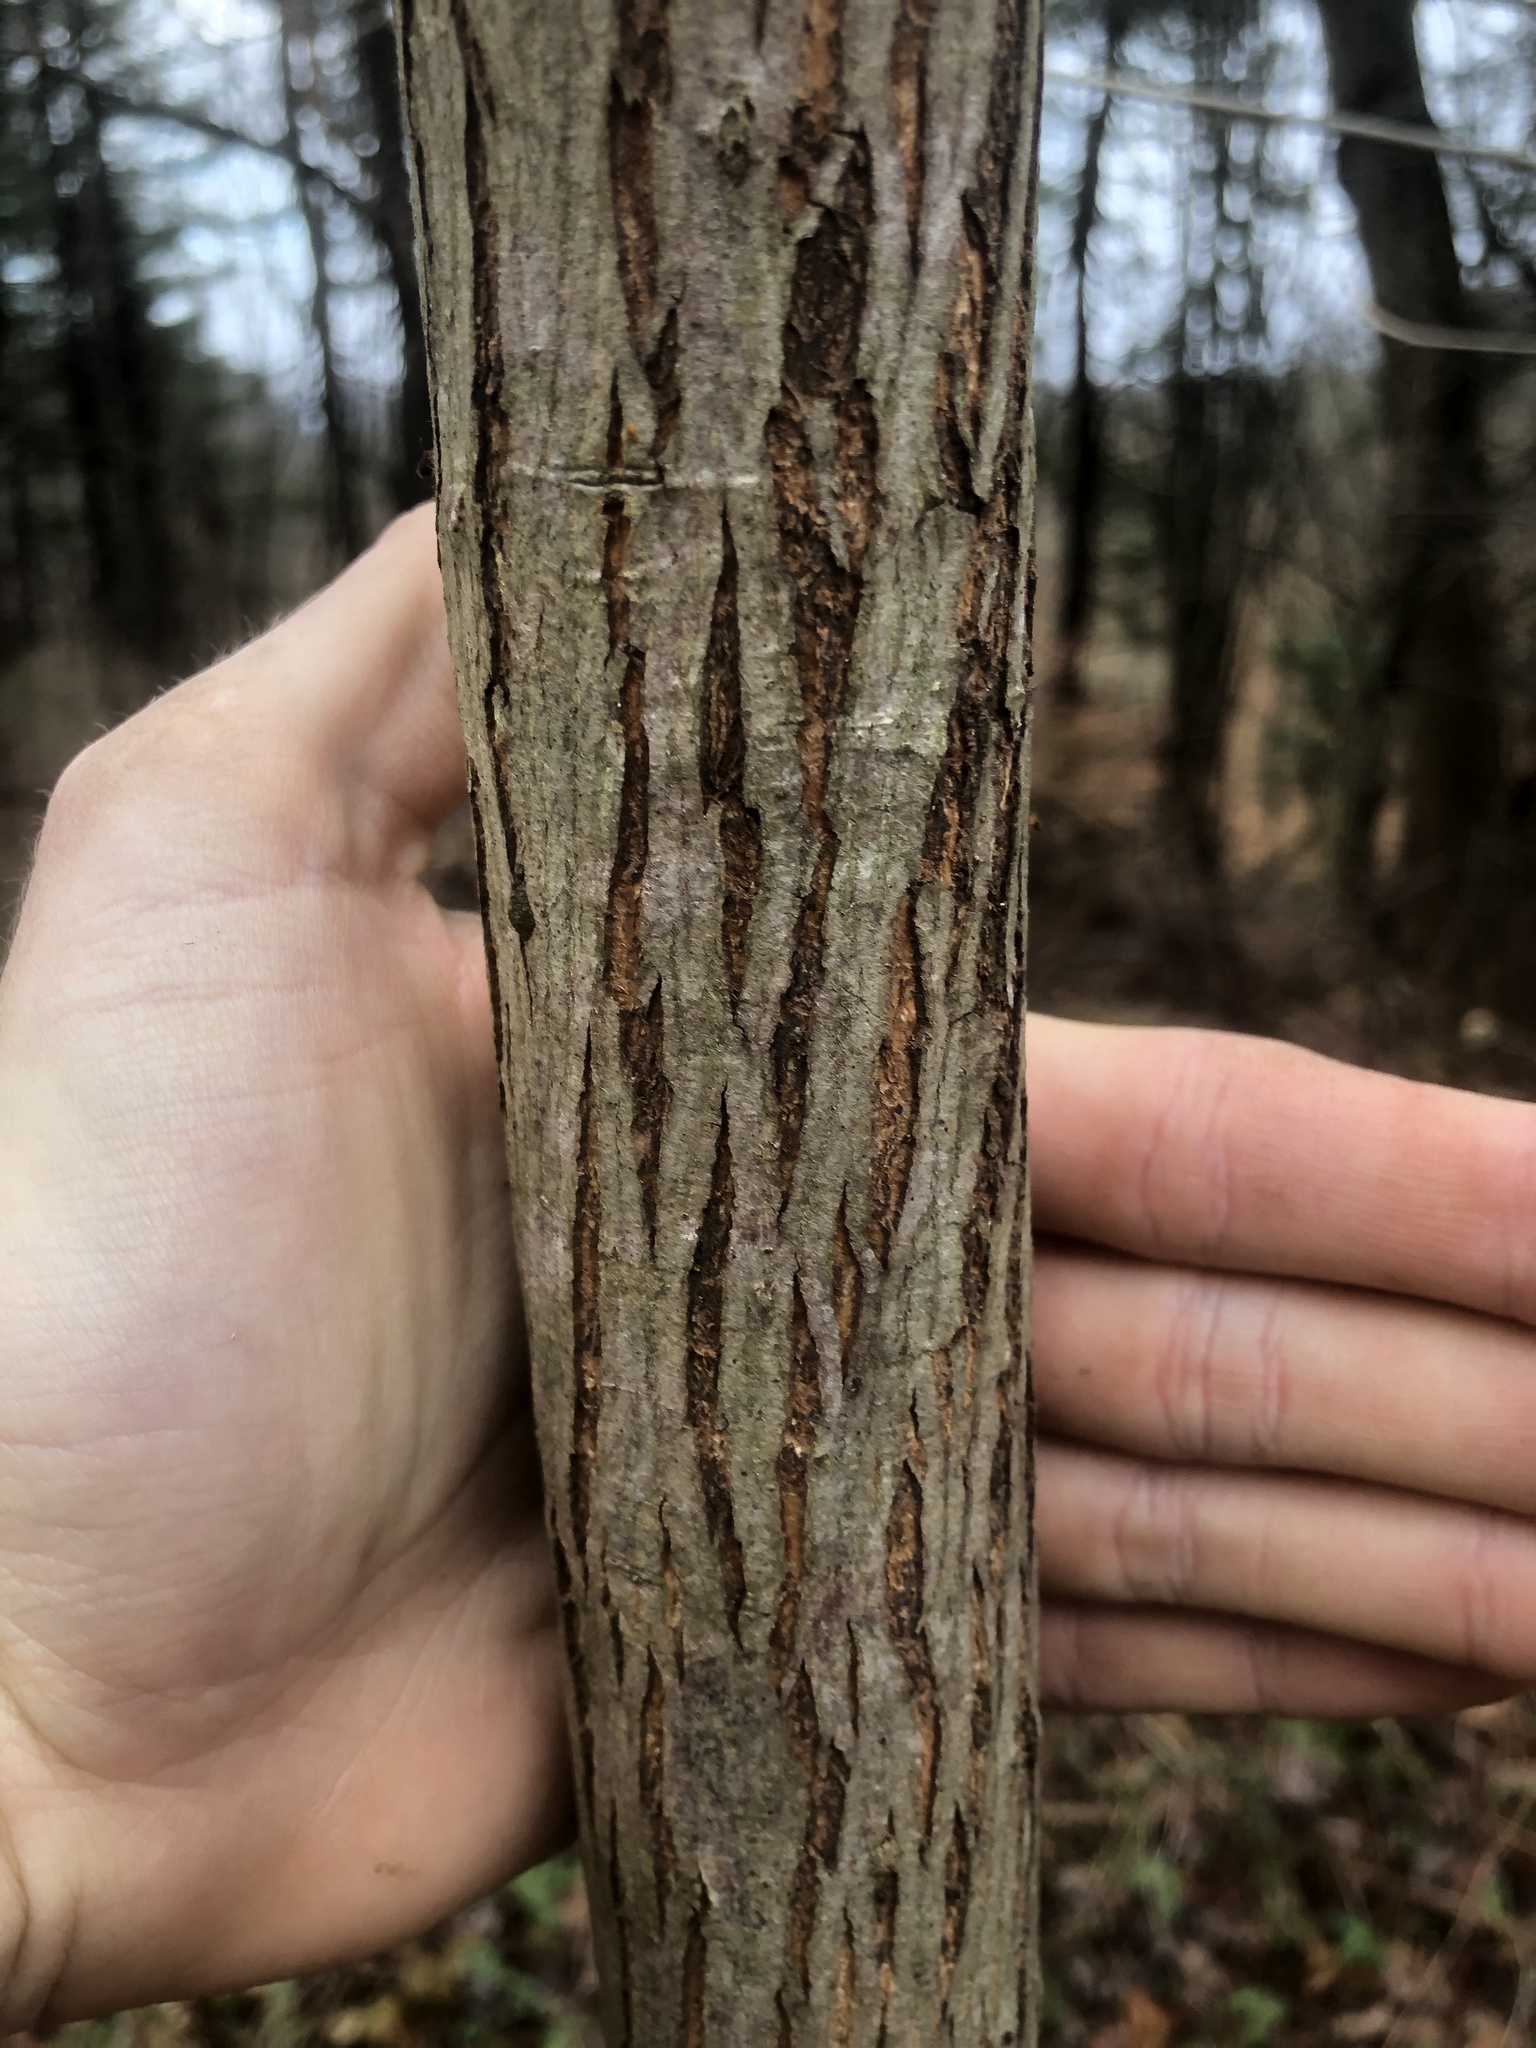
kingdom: Plantae
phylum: Tracheophyta
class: Magnoliopsida
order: Fagales
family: Juglandaceae
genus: Carya
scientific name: Carya cordiformis
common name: Bitternut hickory
